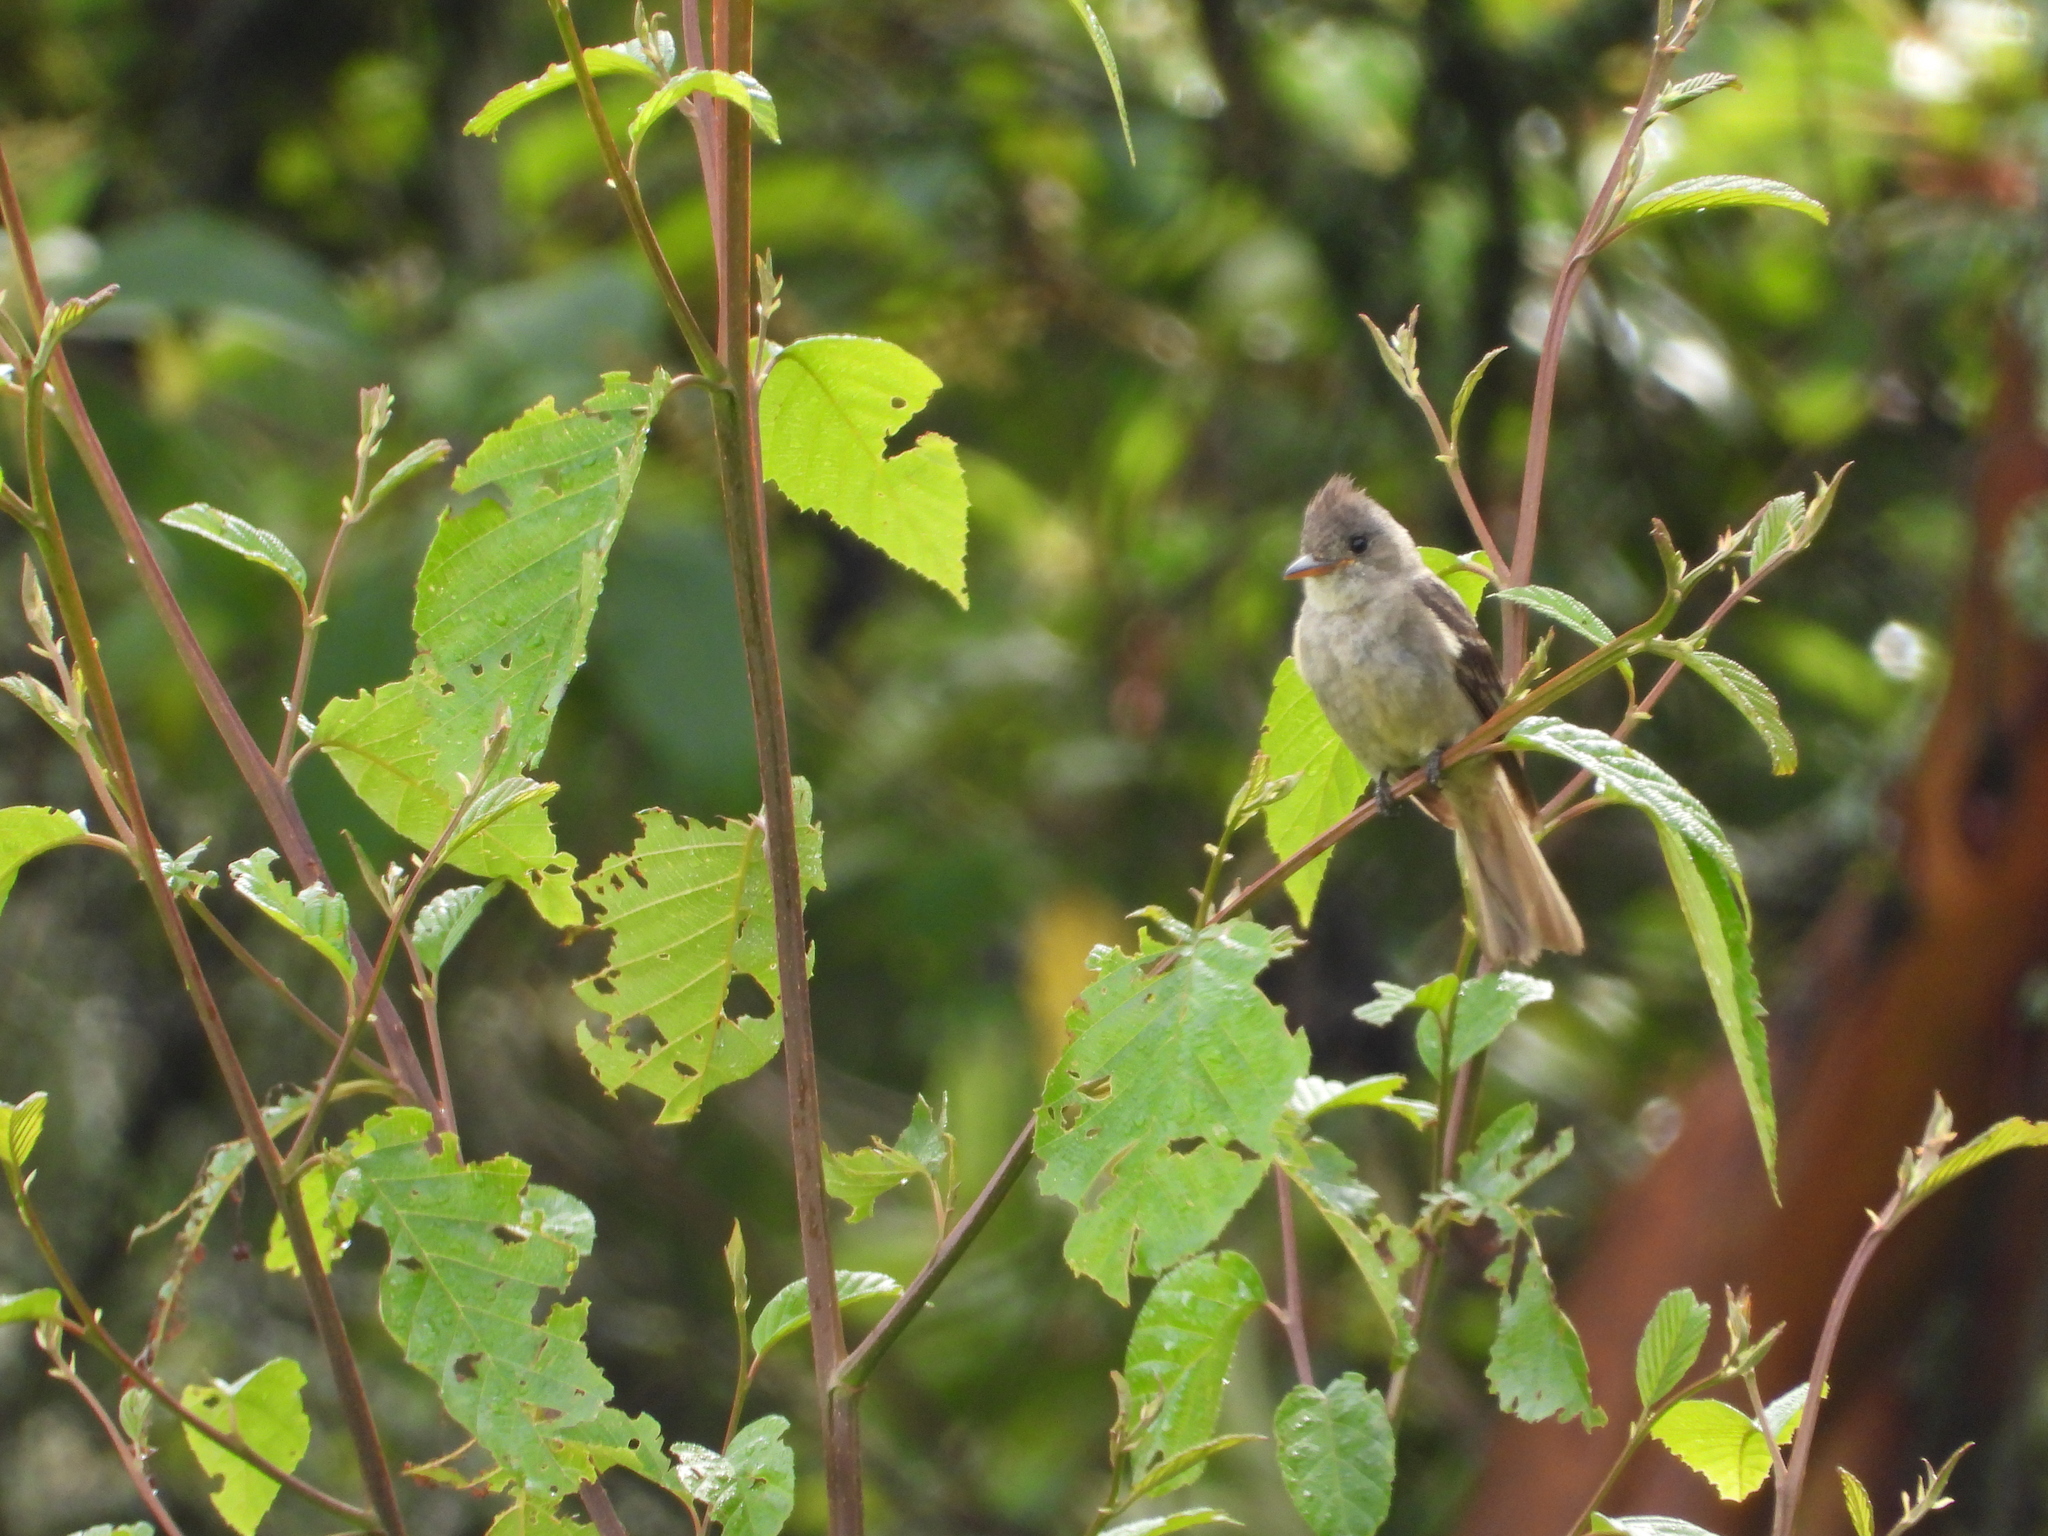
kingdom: Animalia
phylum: Chordata
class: Aves
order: Passeriformes
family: Tyrannidae
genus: Contopus
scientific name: Contopus pertinax
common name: Greater pewee
